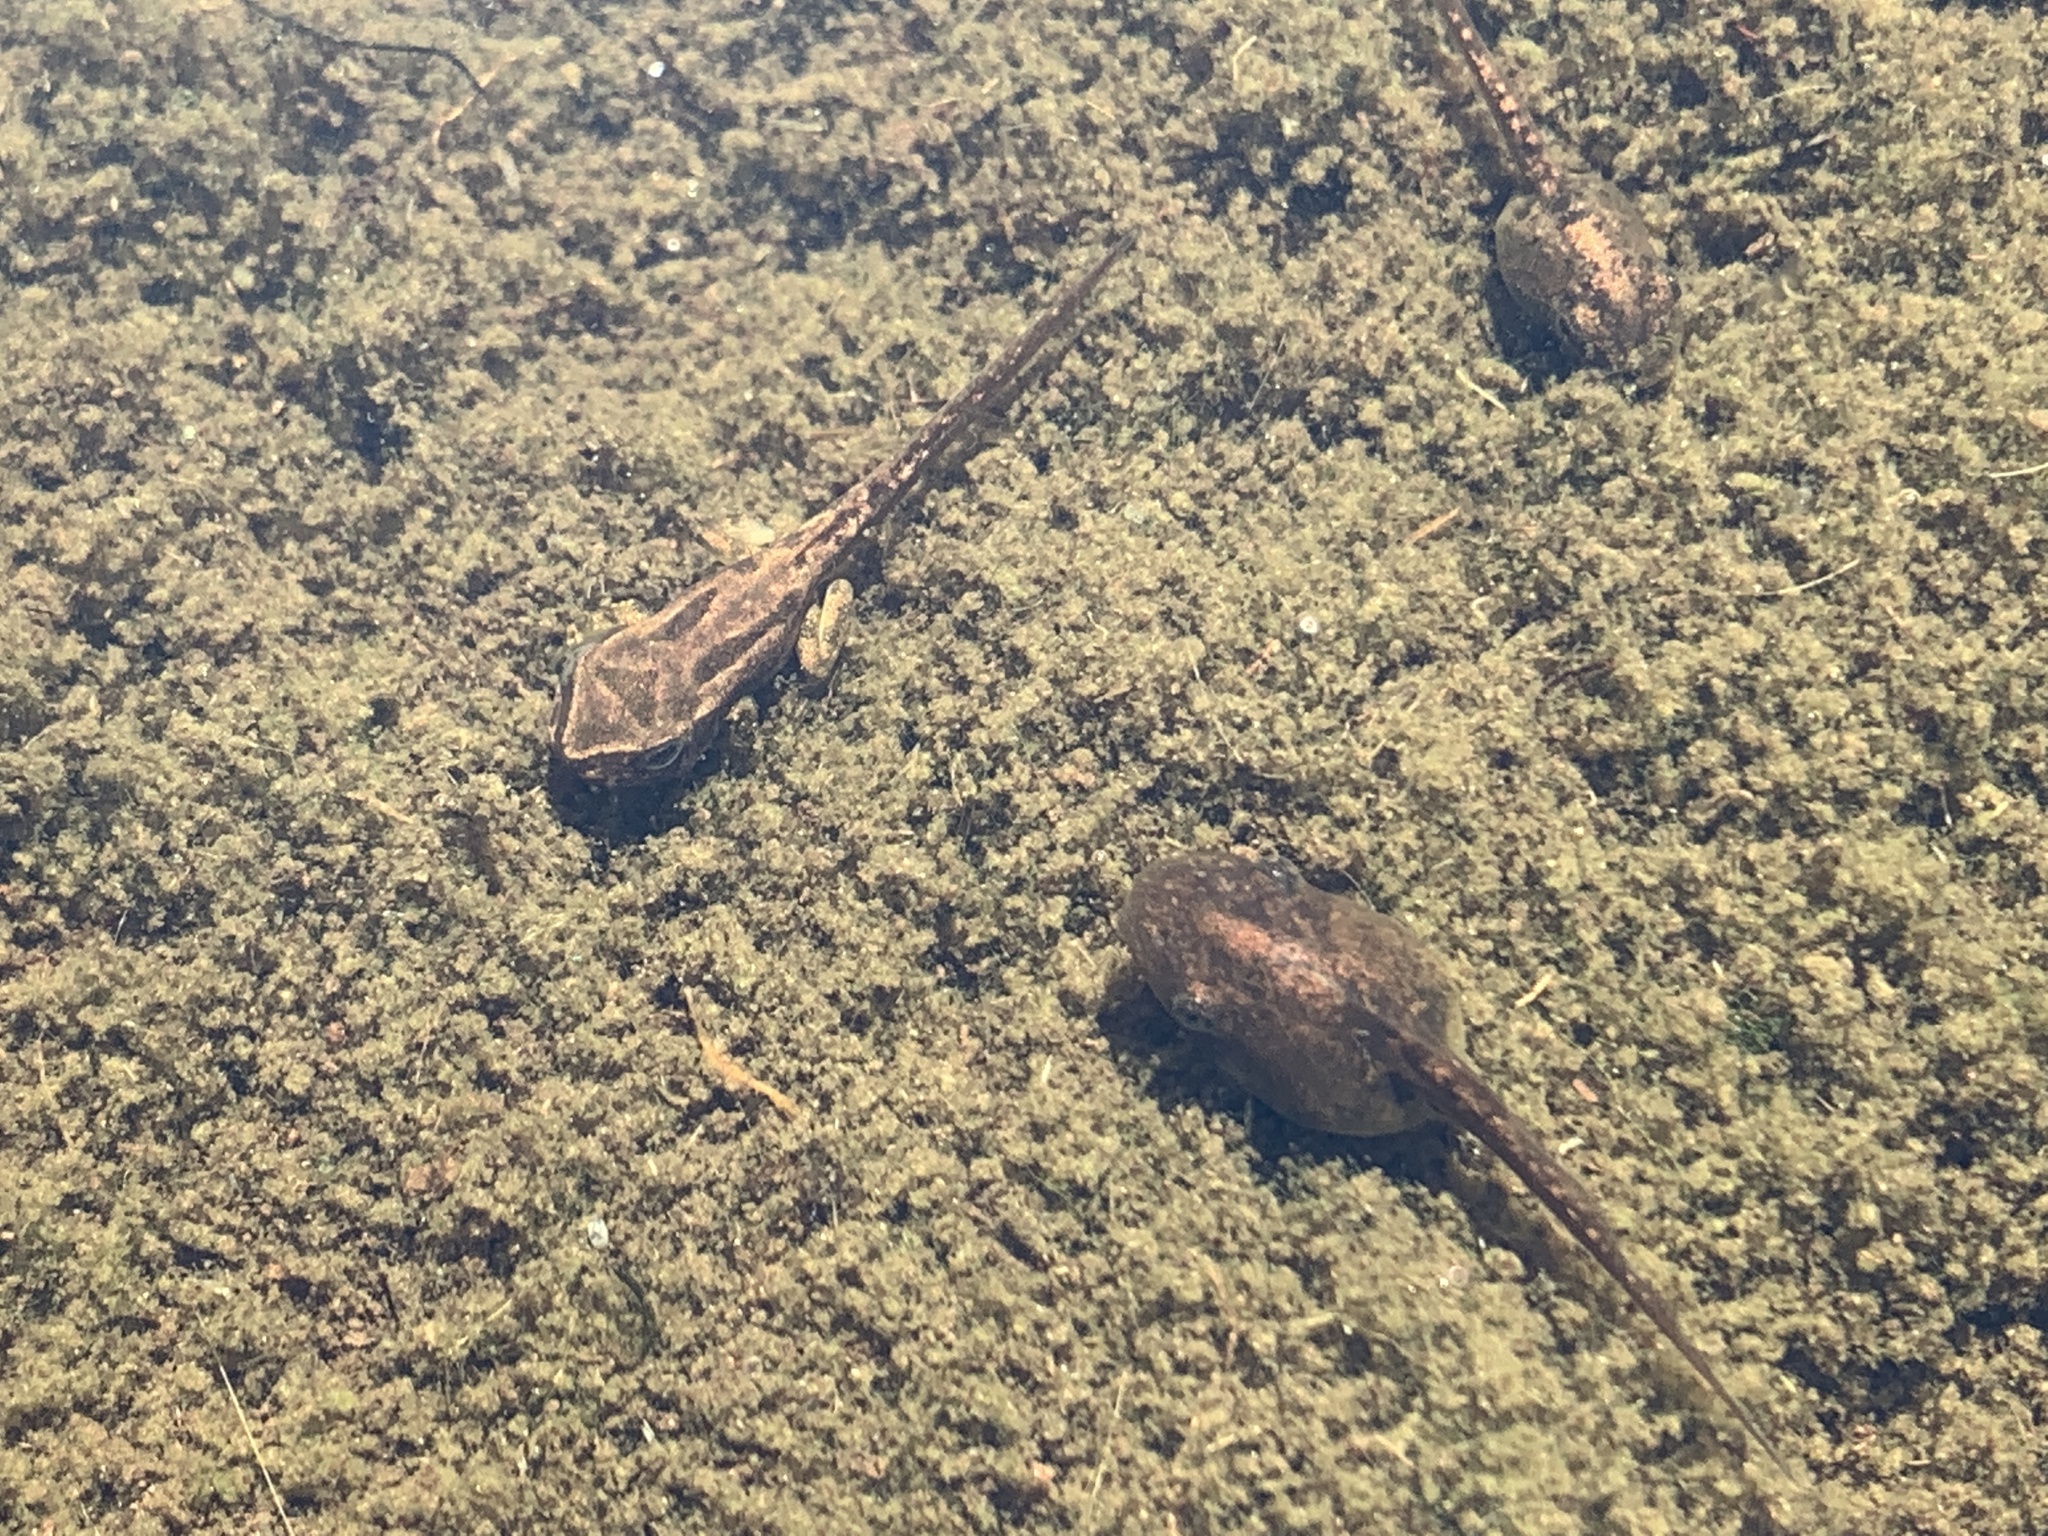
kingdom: Animalia
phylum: Chordata
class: Amphibia
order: Anura
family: Hylidae
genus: Pseudacris
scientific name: Pseudacris regilla
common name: Pacific chorus frog
